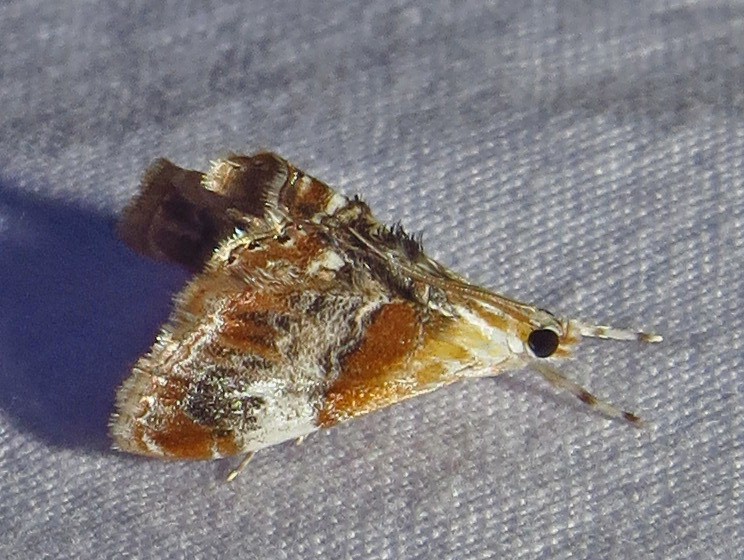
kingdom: Animalia
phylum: Arthropoda
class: Insecta
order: Lepidoptera
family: Crambidae
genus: Dicymolomia
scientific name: Dicymolomia julianalis
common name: Julia's dicymolomia moth
